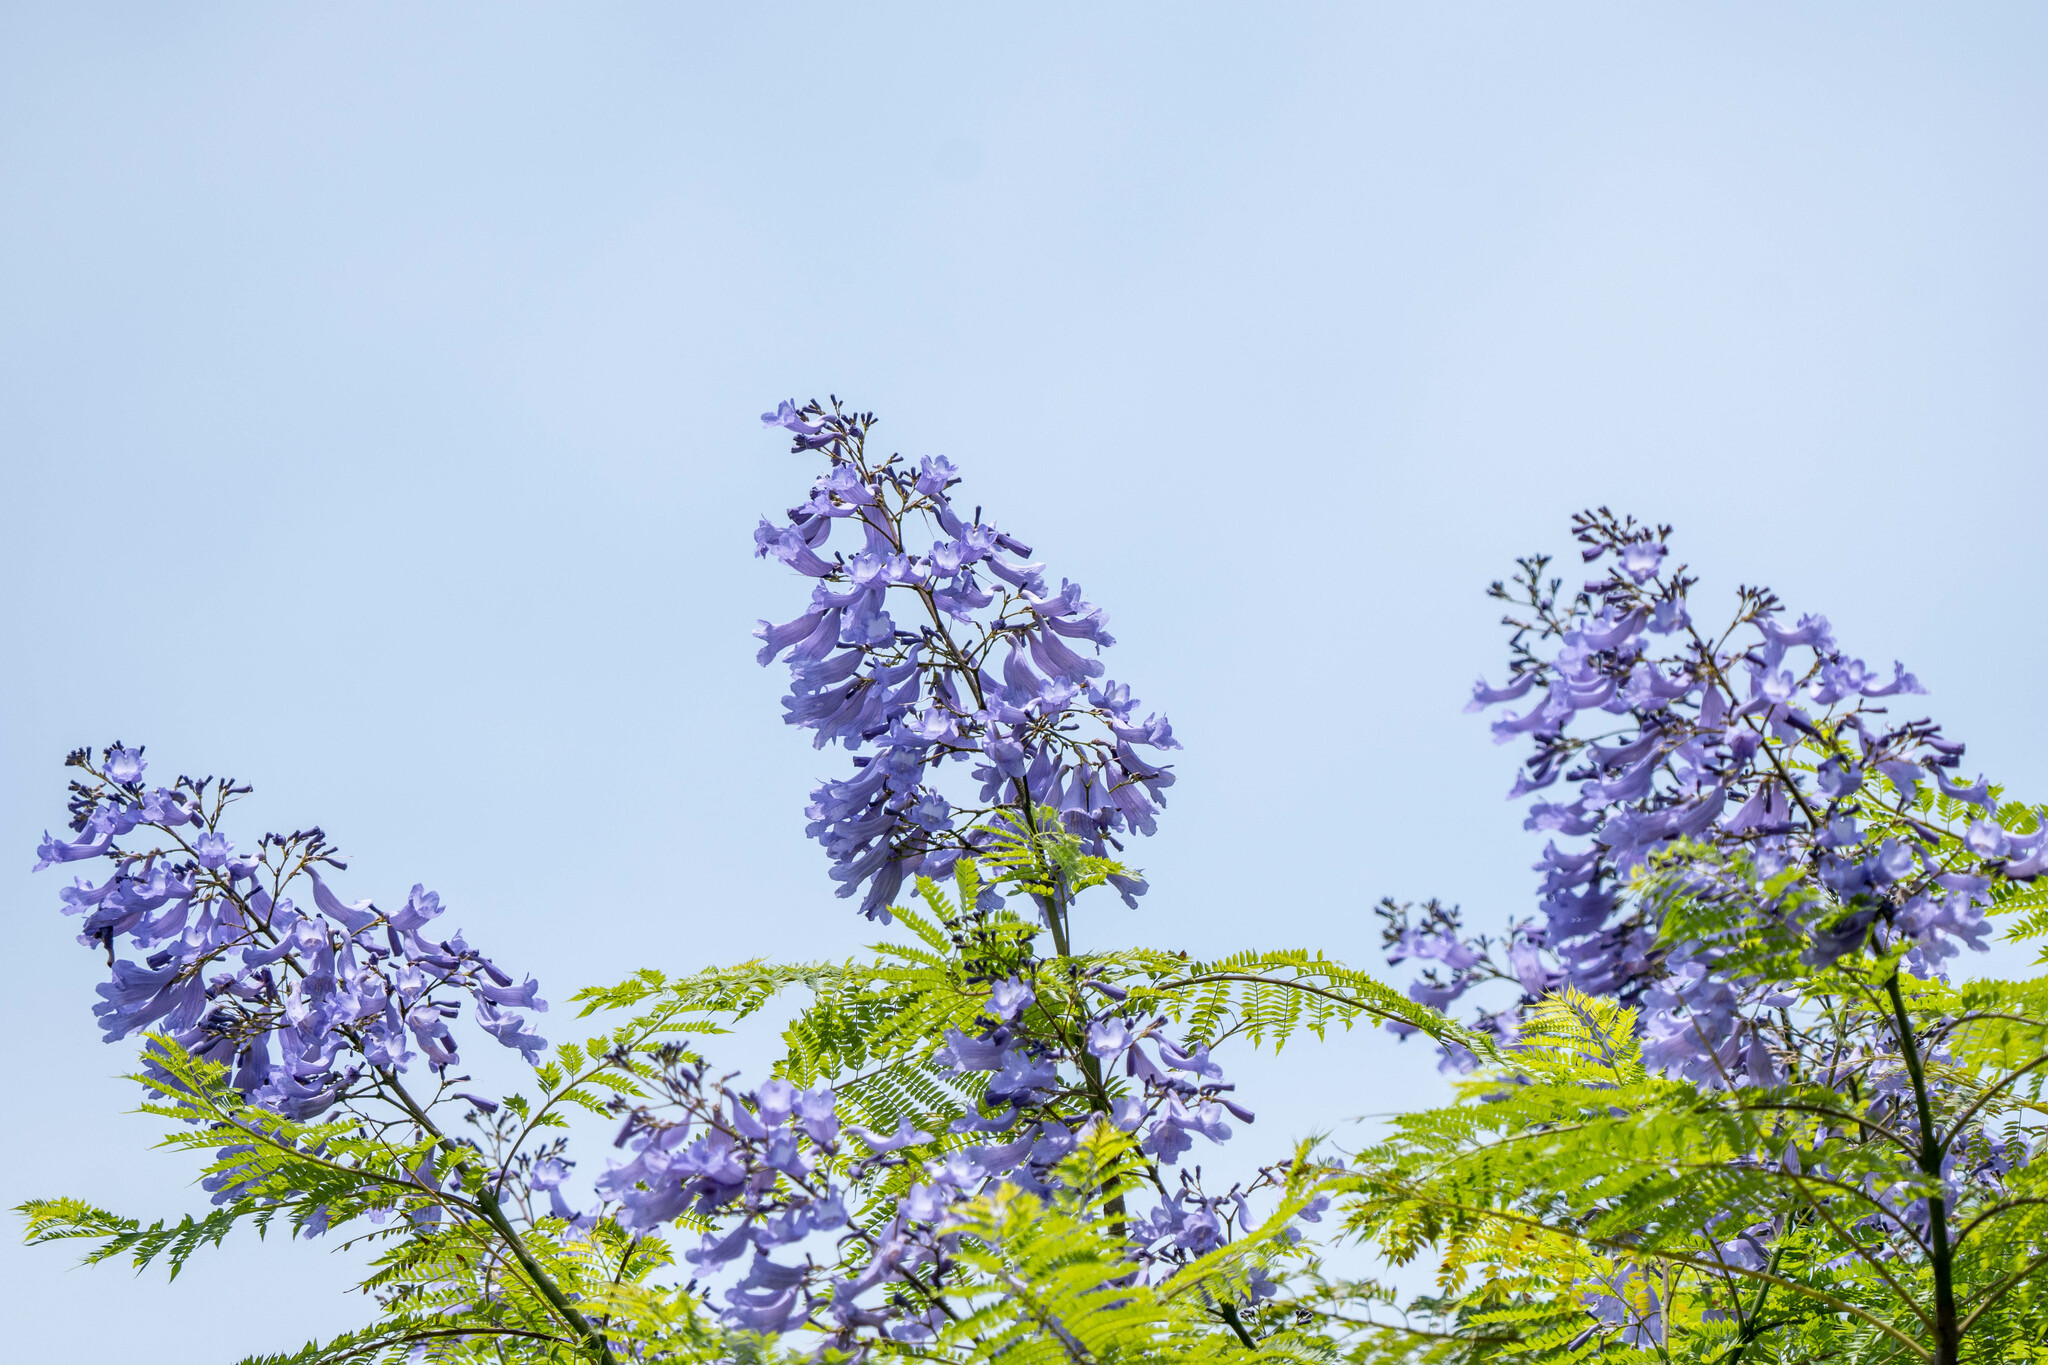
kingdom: Plantae
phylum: Tracheophyta
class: Magnoliopsida
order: Lamiales
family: Bignoniaceae
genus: Jacaranda
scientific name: Jacaranda mimosifolia
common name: Black poui
